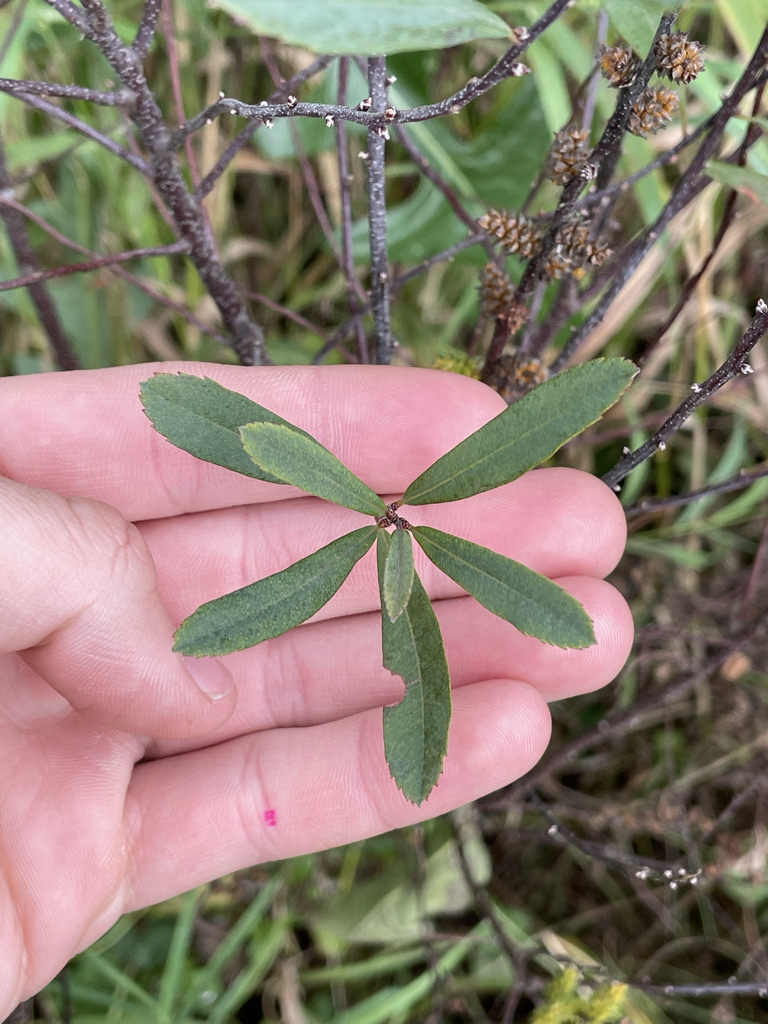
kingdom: Plantae
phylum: Tracheophyta
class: Magnoliopsida
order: Fagales
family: Myricaceae
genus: Myrica
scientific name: Myrica gale
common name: Sweet gale
